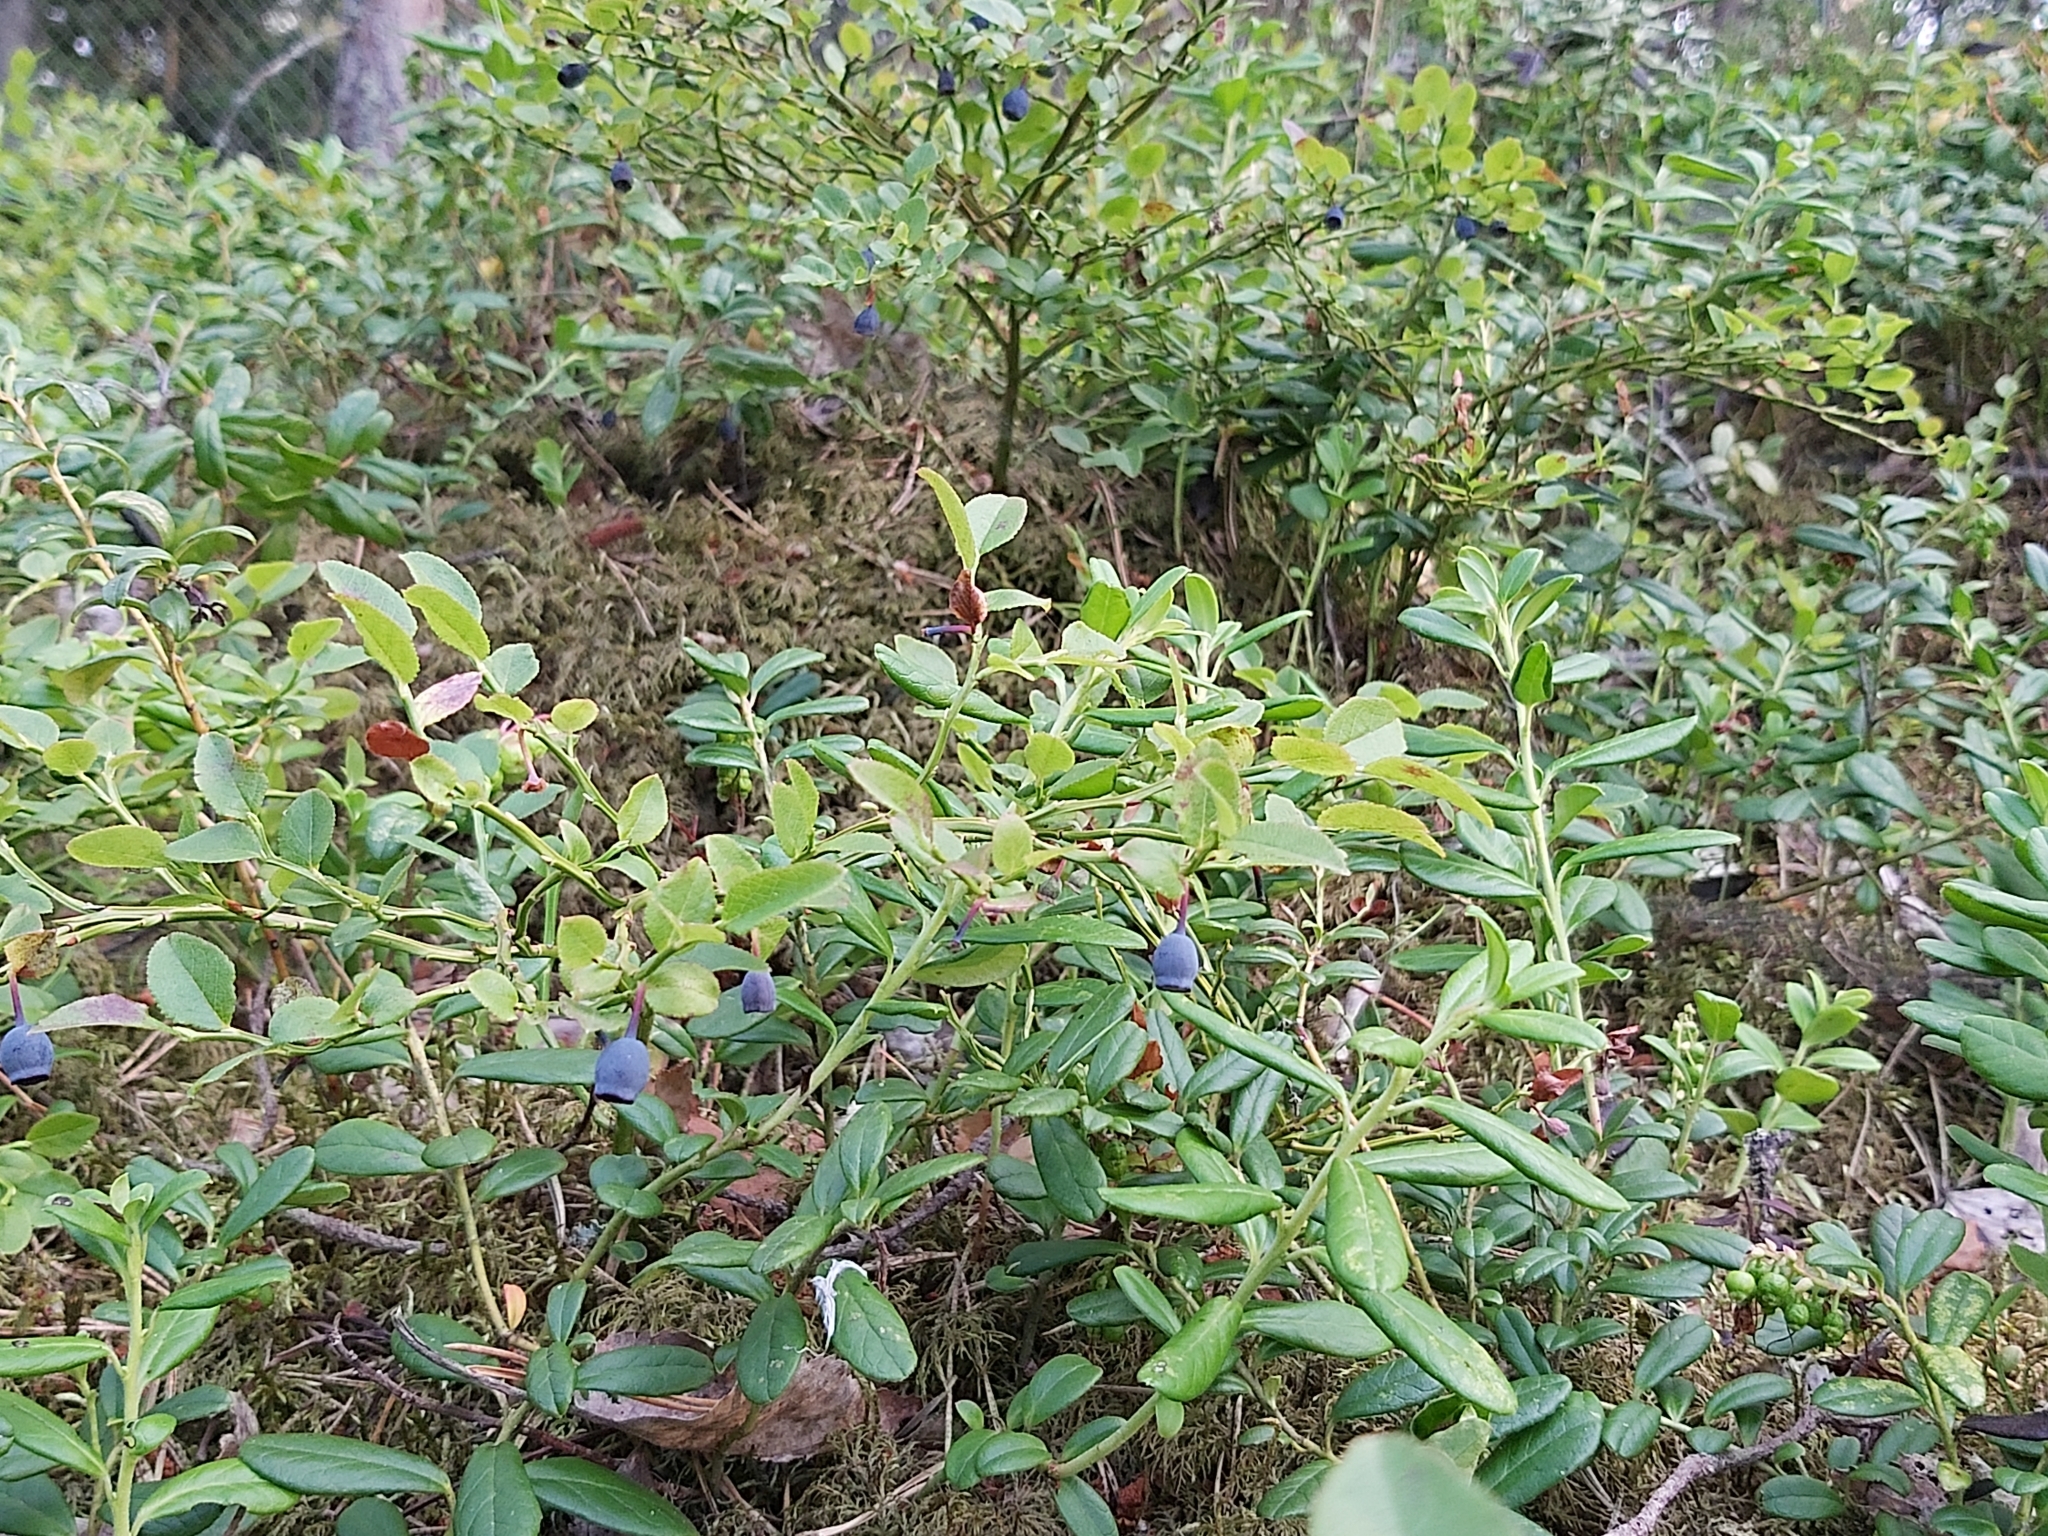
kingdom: Plantae
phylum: Tracheophyta
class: Magnoliopsida
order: Ericales
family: Ericaceae
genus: Vaccinium
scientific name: Vaccinium myrtillus
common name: Bilberry
